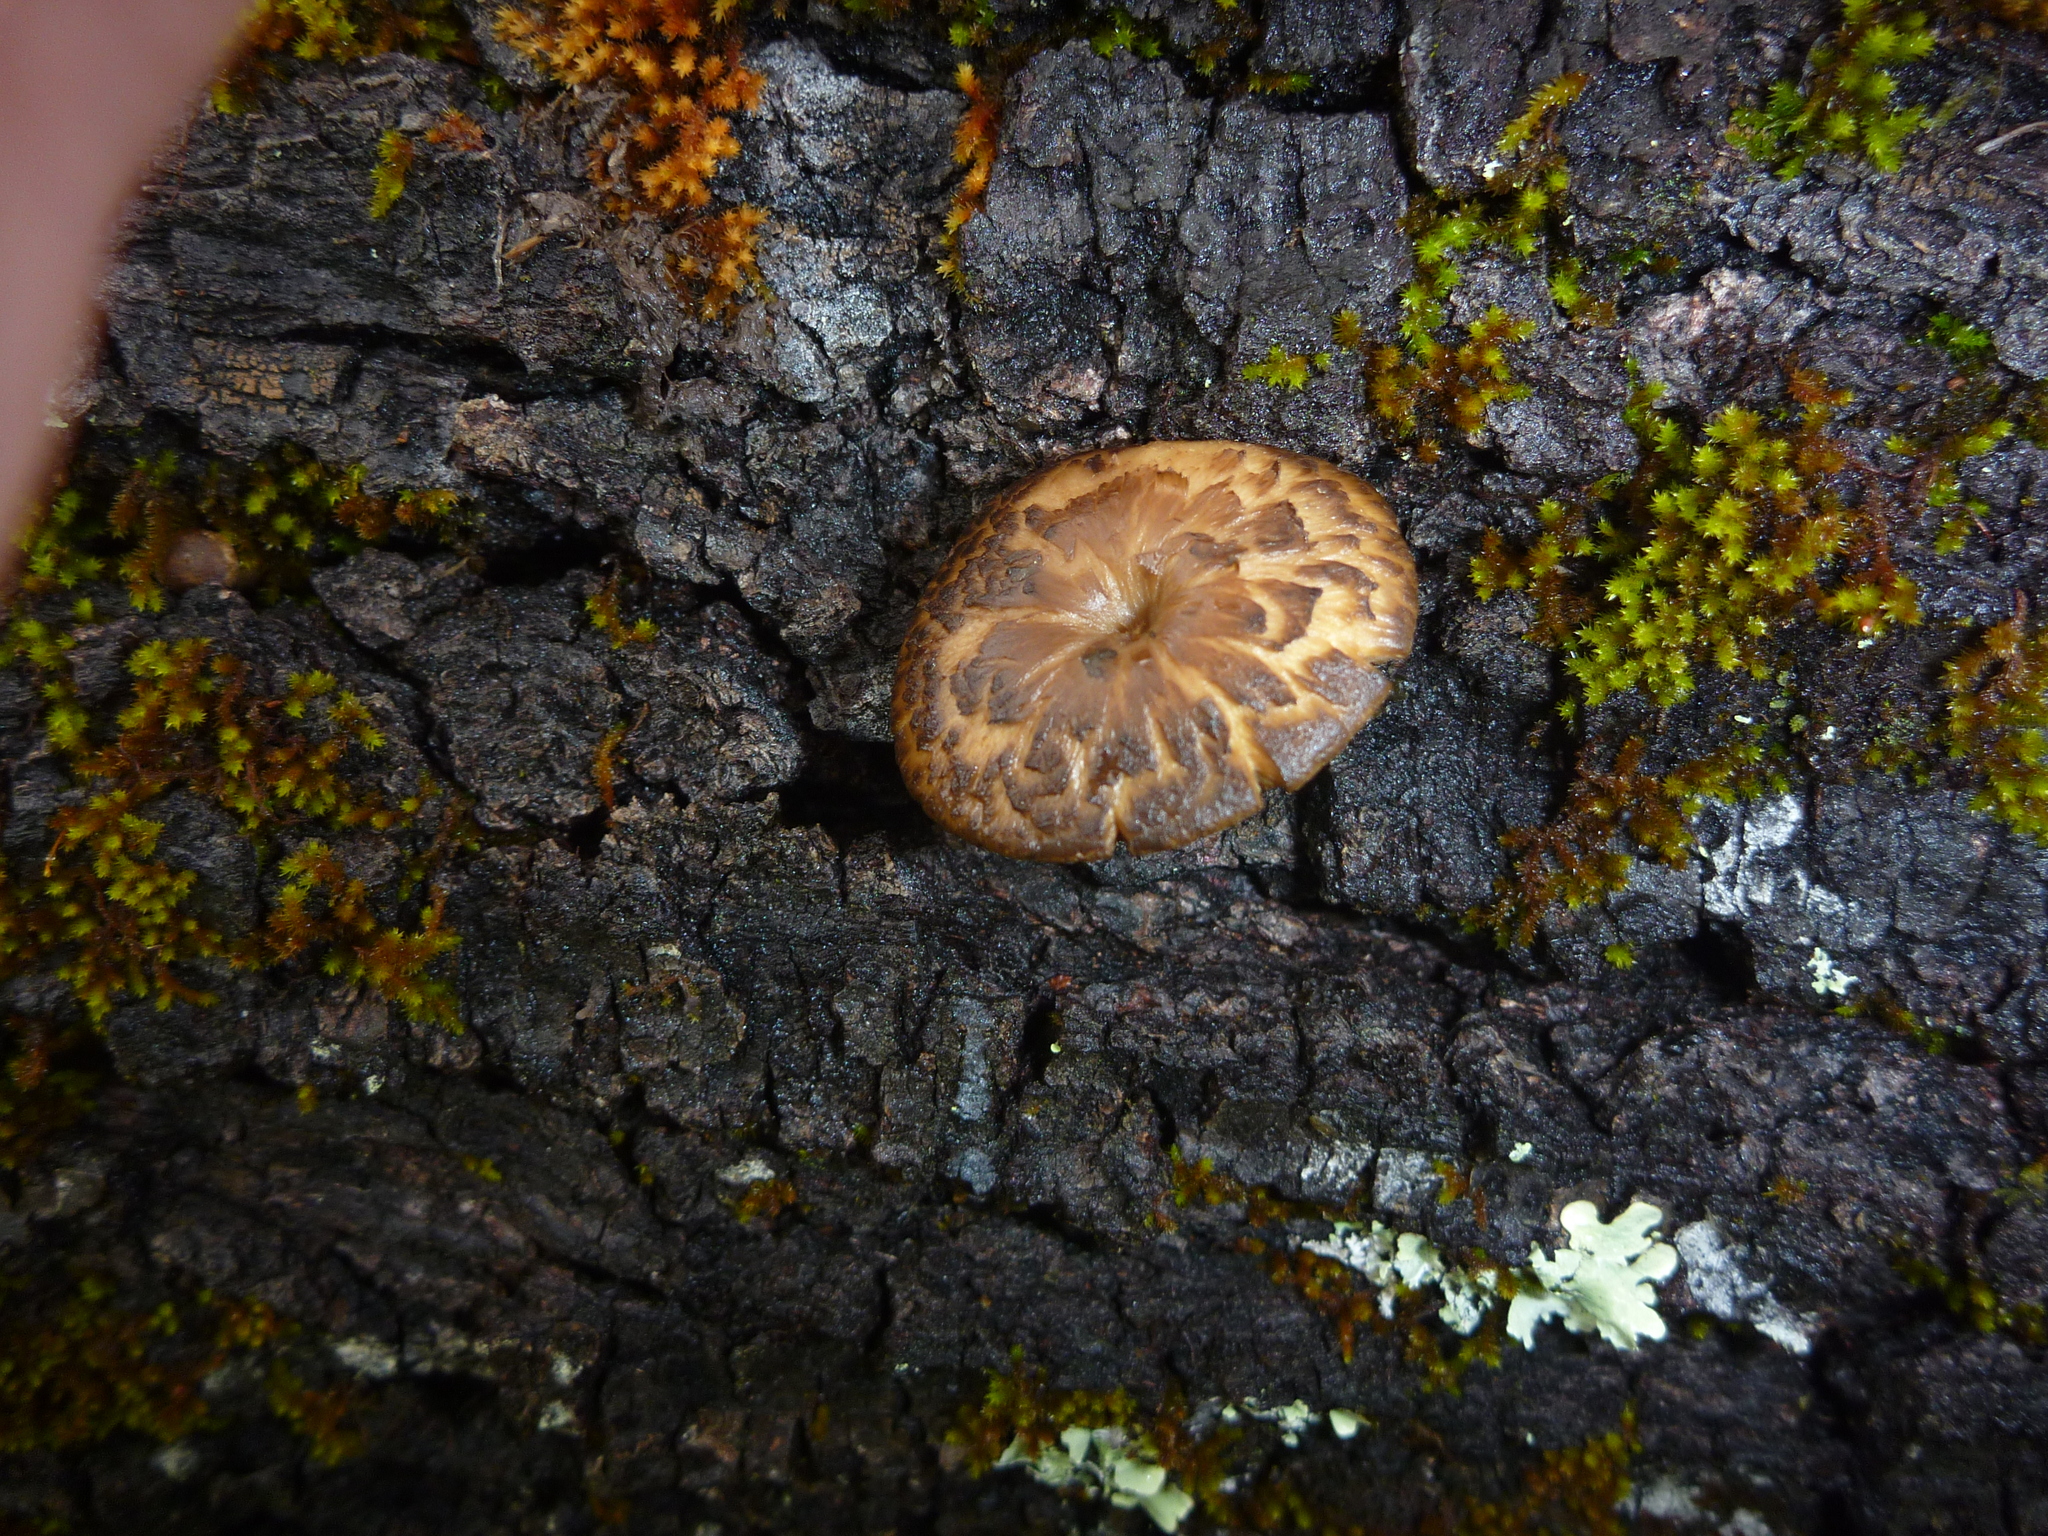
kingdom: Fungi
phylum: Basidiomycota
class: Agaricomycetes
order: Polyporales
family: Polyporaceae
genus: Lentinus
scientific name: Lentinus arcularius
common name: Spring polypore
